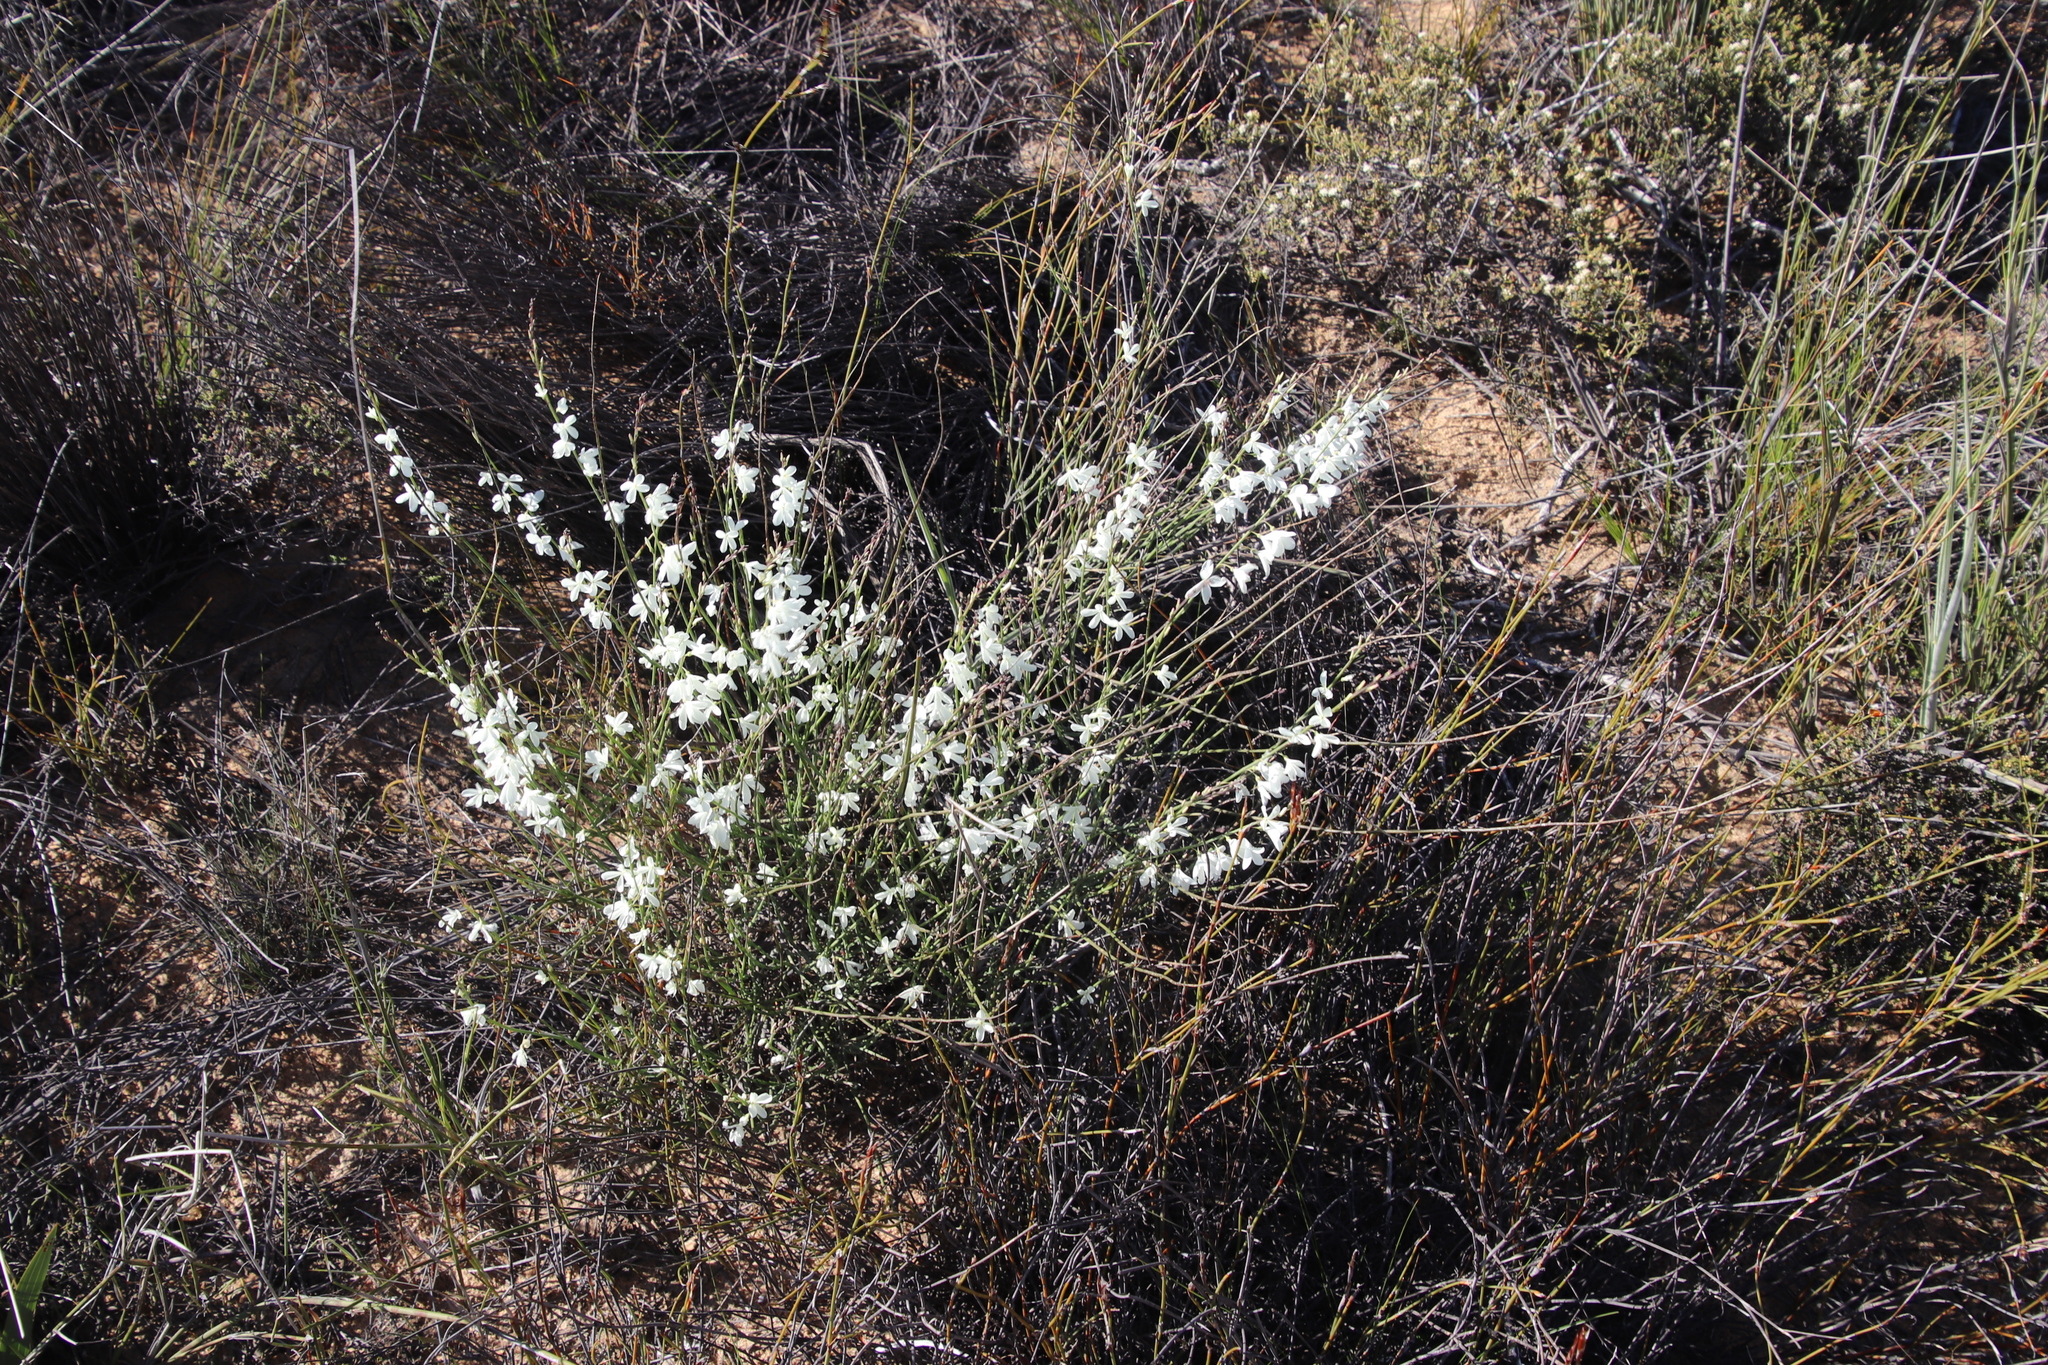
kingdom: Plantae
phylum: Tracheophyta
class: Magnoliopsida
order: Brassicales
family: Brassicaceae
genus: Heliophila
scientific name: Heliophila juncea
